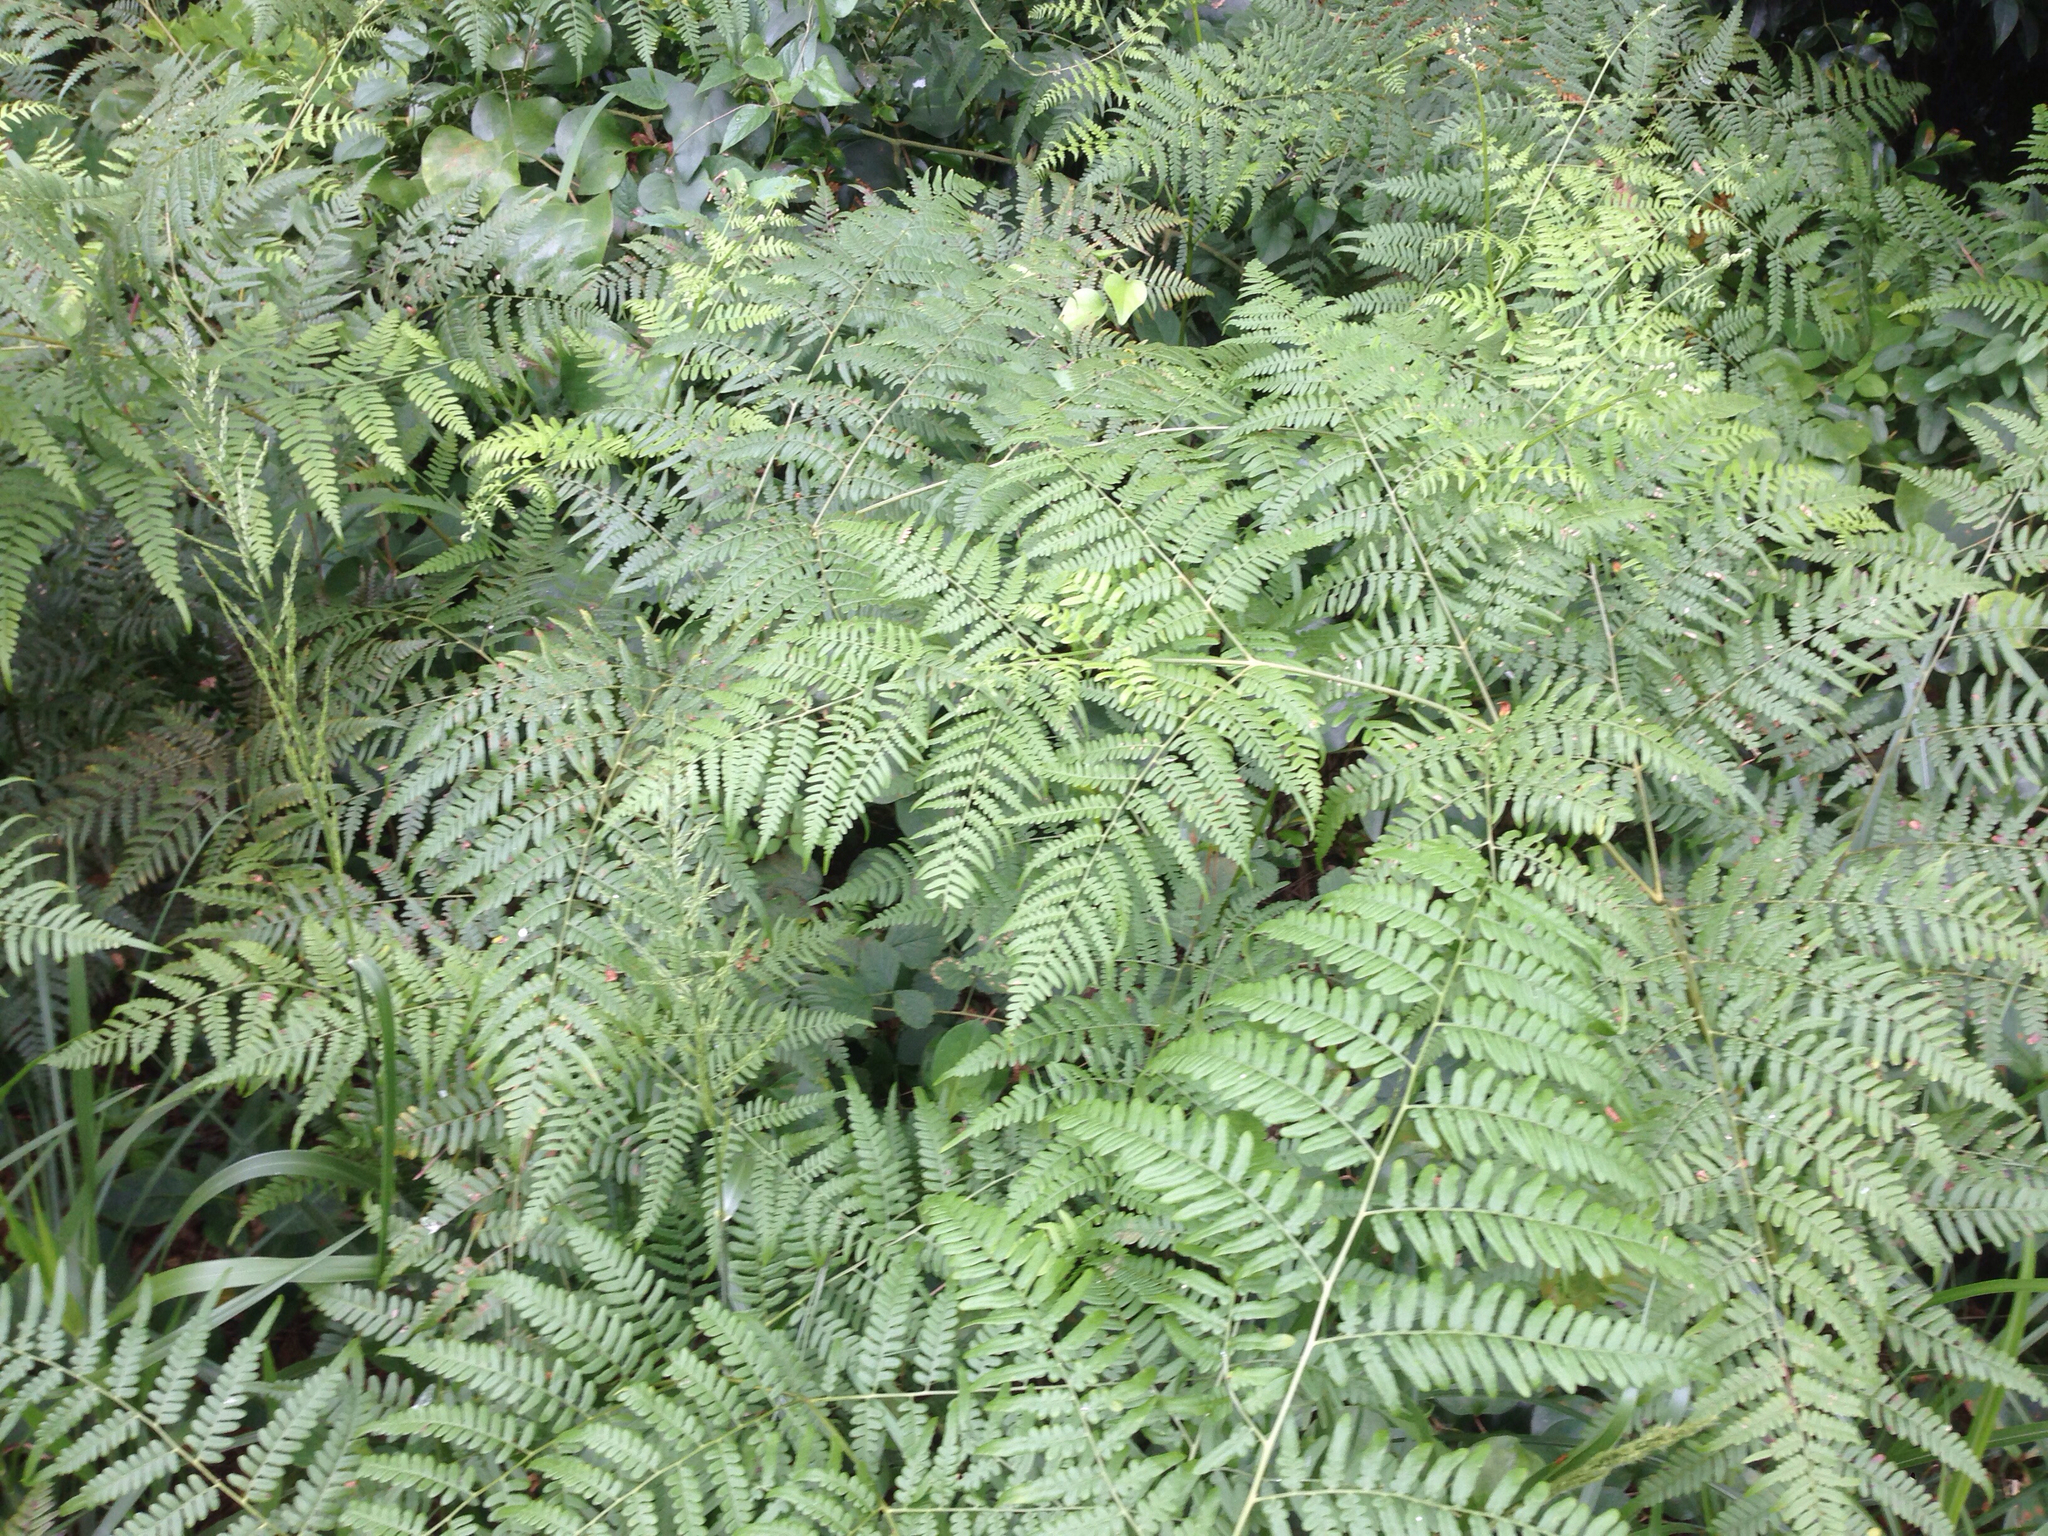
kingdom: Plantae
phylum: Tracheophyta
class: Polypodiopsida
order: Polypodiales
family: Dennstaedtiaceae
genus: Pteridium
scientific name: Pteridium aquilinum
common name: Bracken
